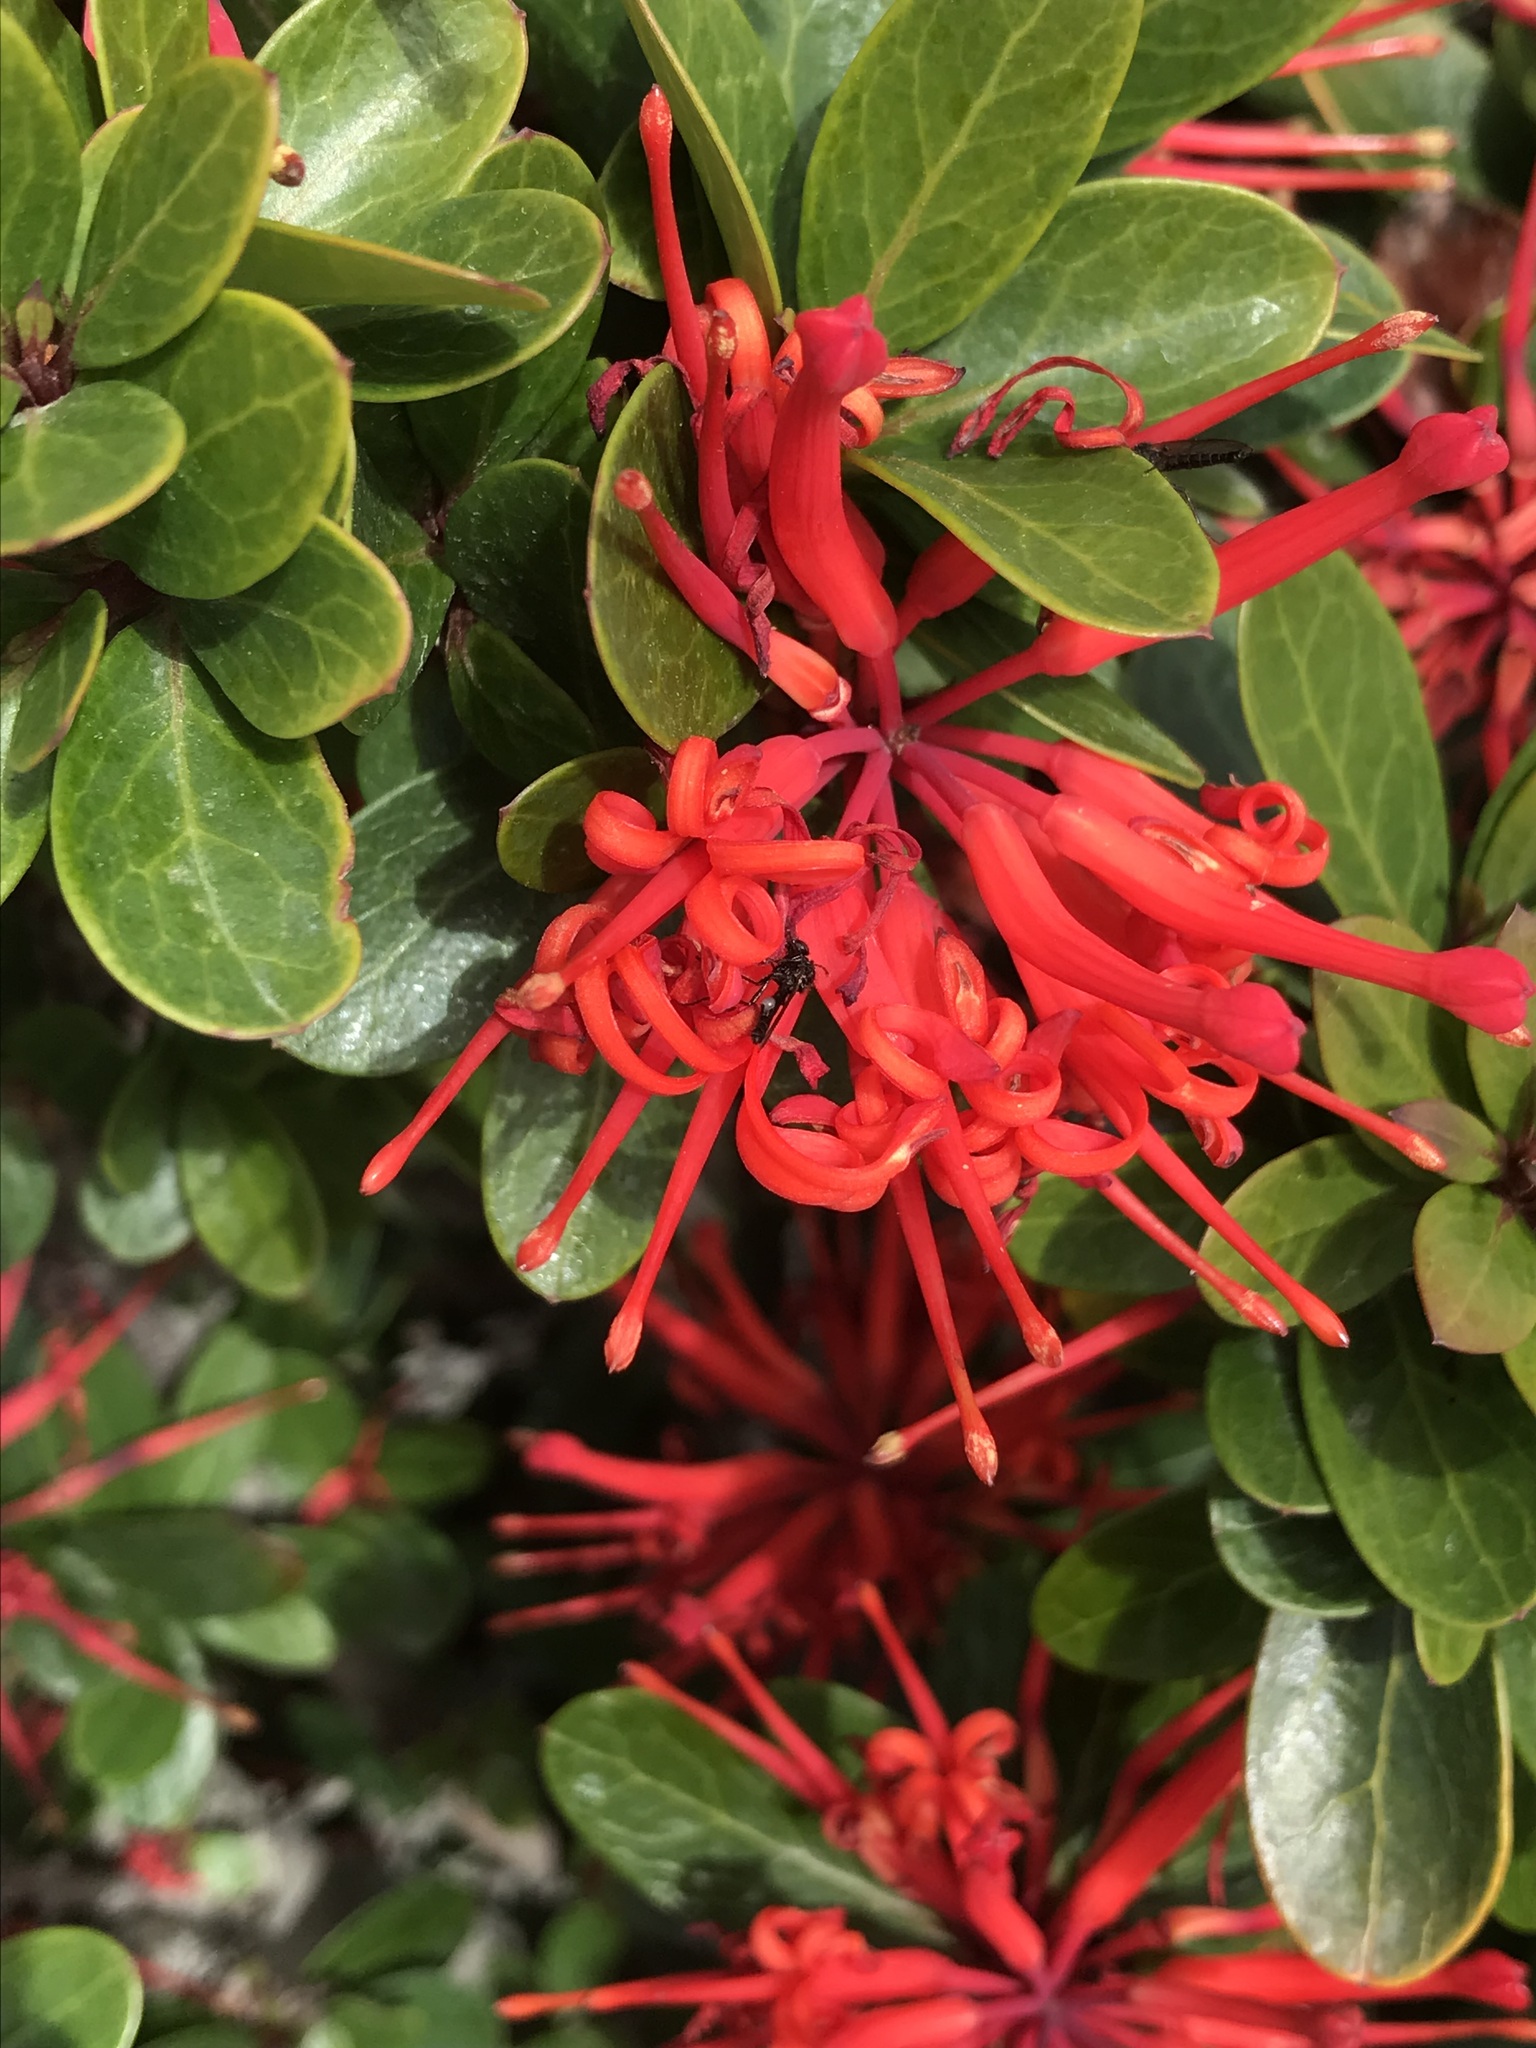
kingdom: Plantae
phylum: Tracheophyta
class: Magnoliopsida
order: Proteales
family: Proteaceae
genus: Embothrium
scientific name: Embothrium coccineum
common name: Chilean firebush
